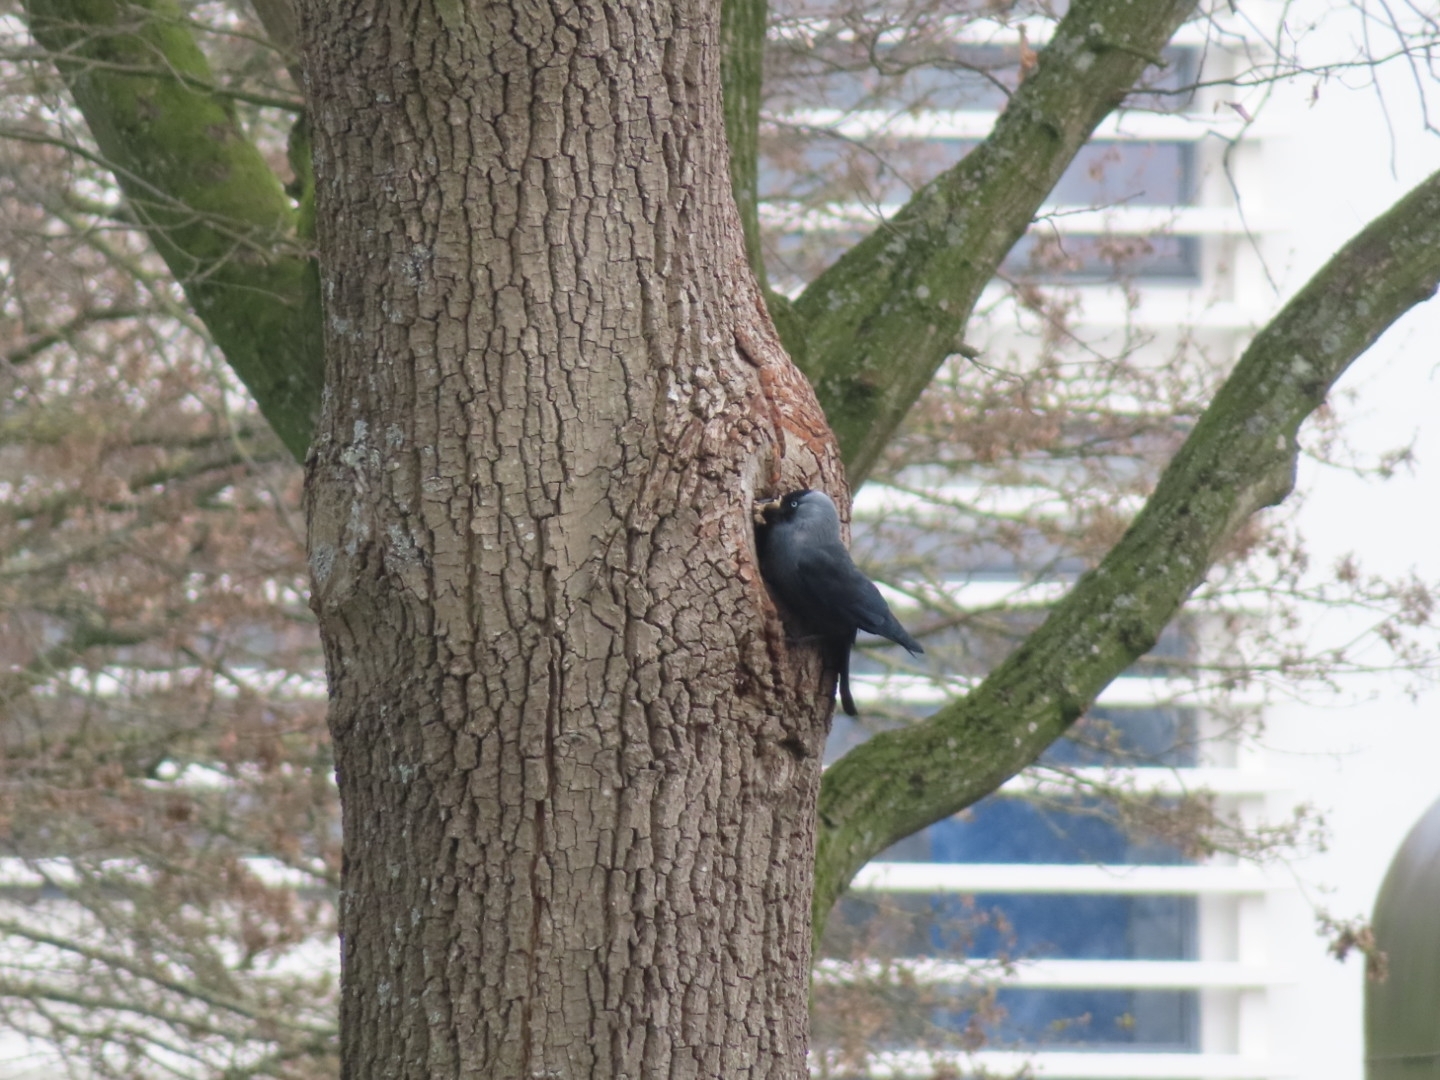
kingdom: Animalia
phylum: Chordata
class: Aves
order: Passeriformes
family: Corvidae
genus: Coloeus
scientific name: Coloeus monedula
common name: Western jackdaw
